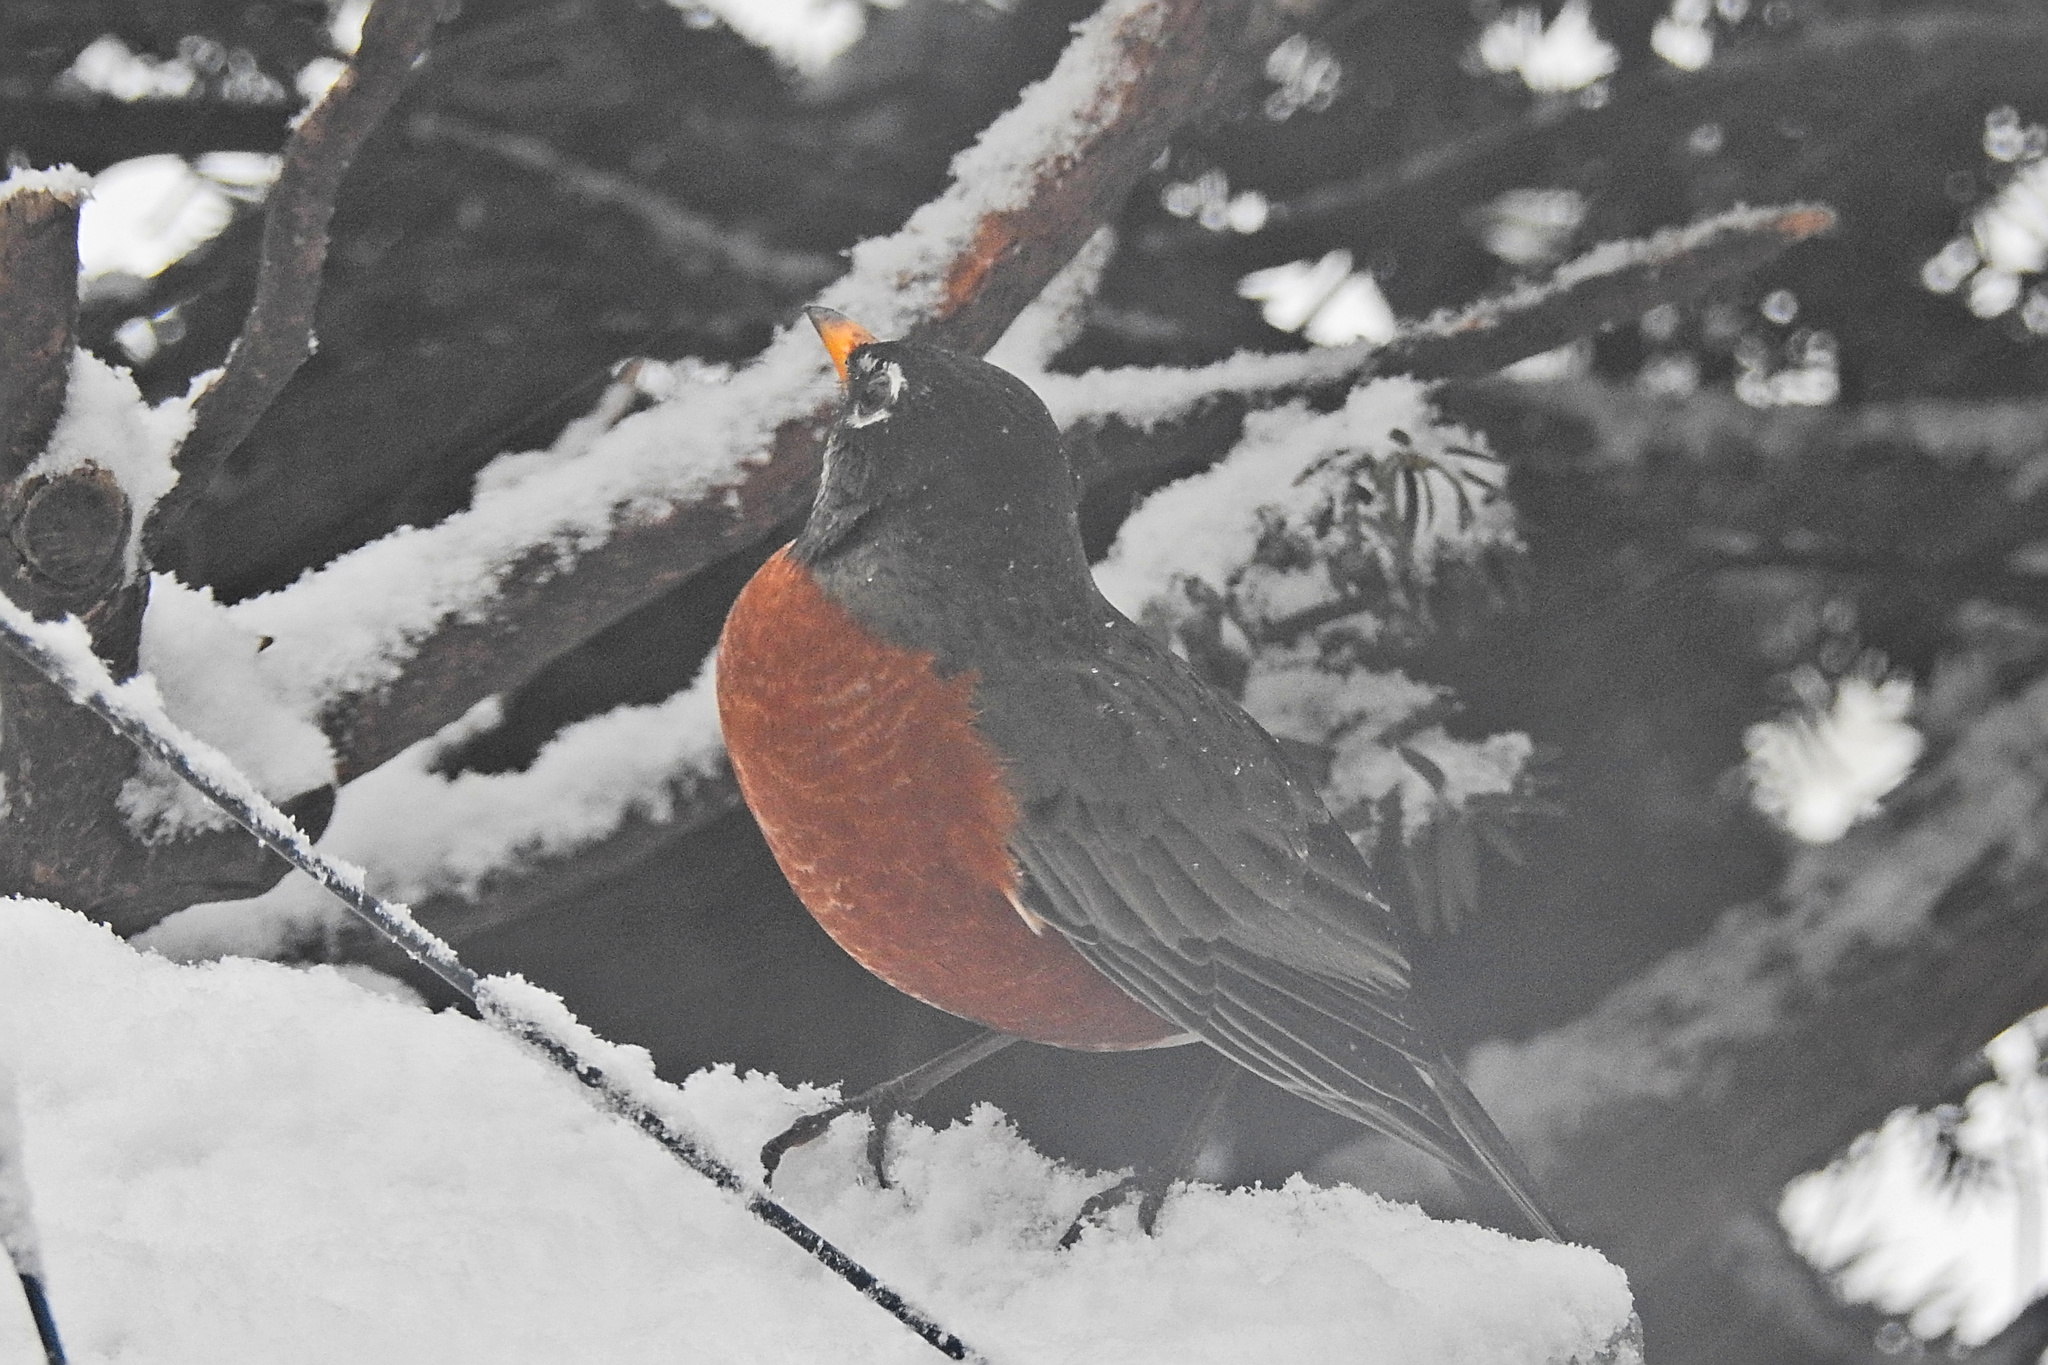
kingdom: Animalia
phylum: Chordata
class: Aves
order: Passeriformes
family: Turdidae
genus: Turdus
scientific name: Turdus migratorius
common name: American robin
